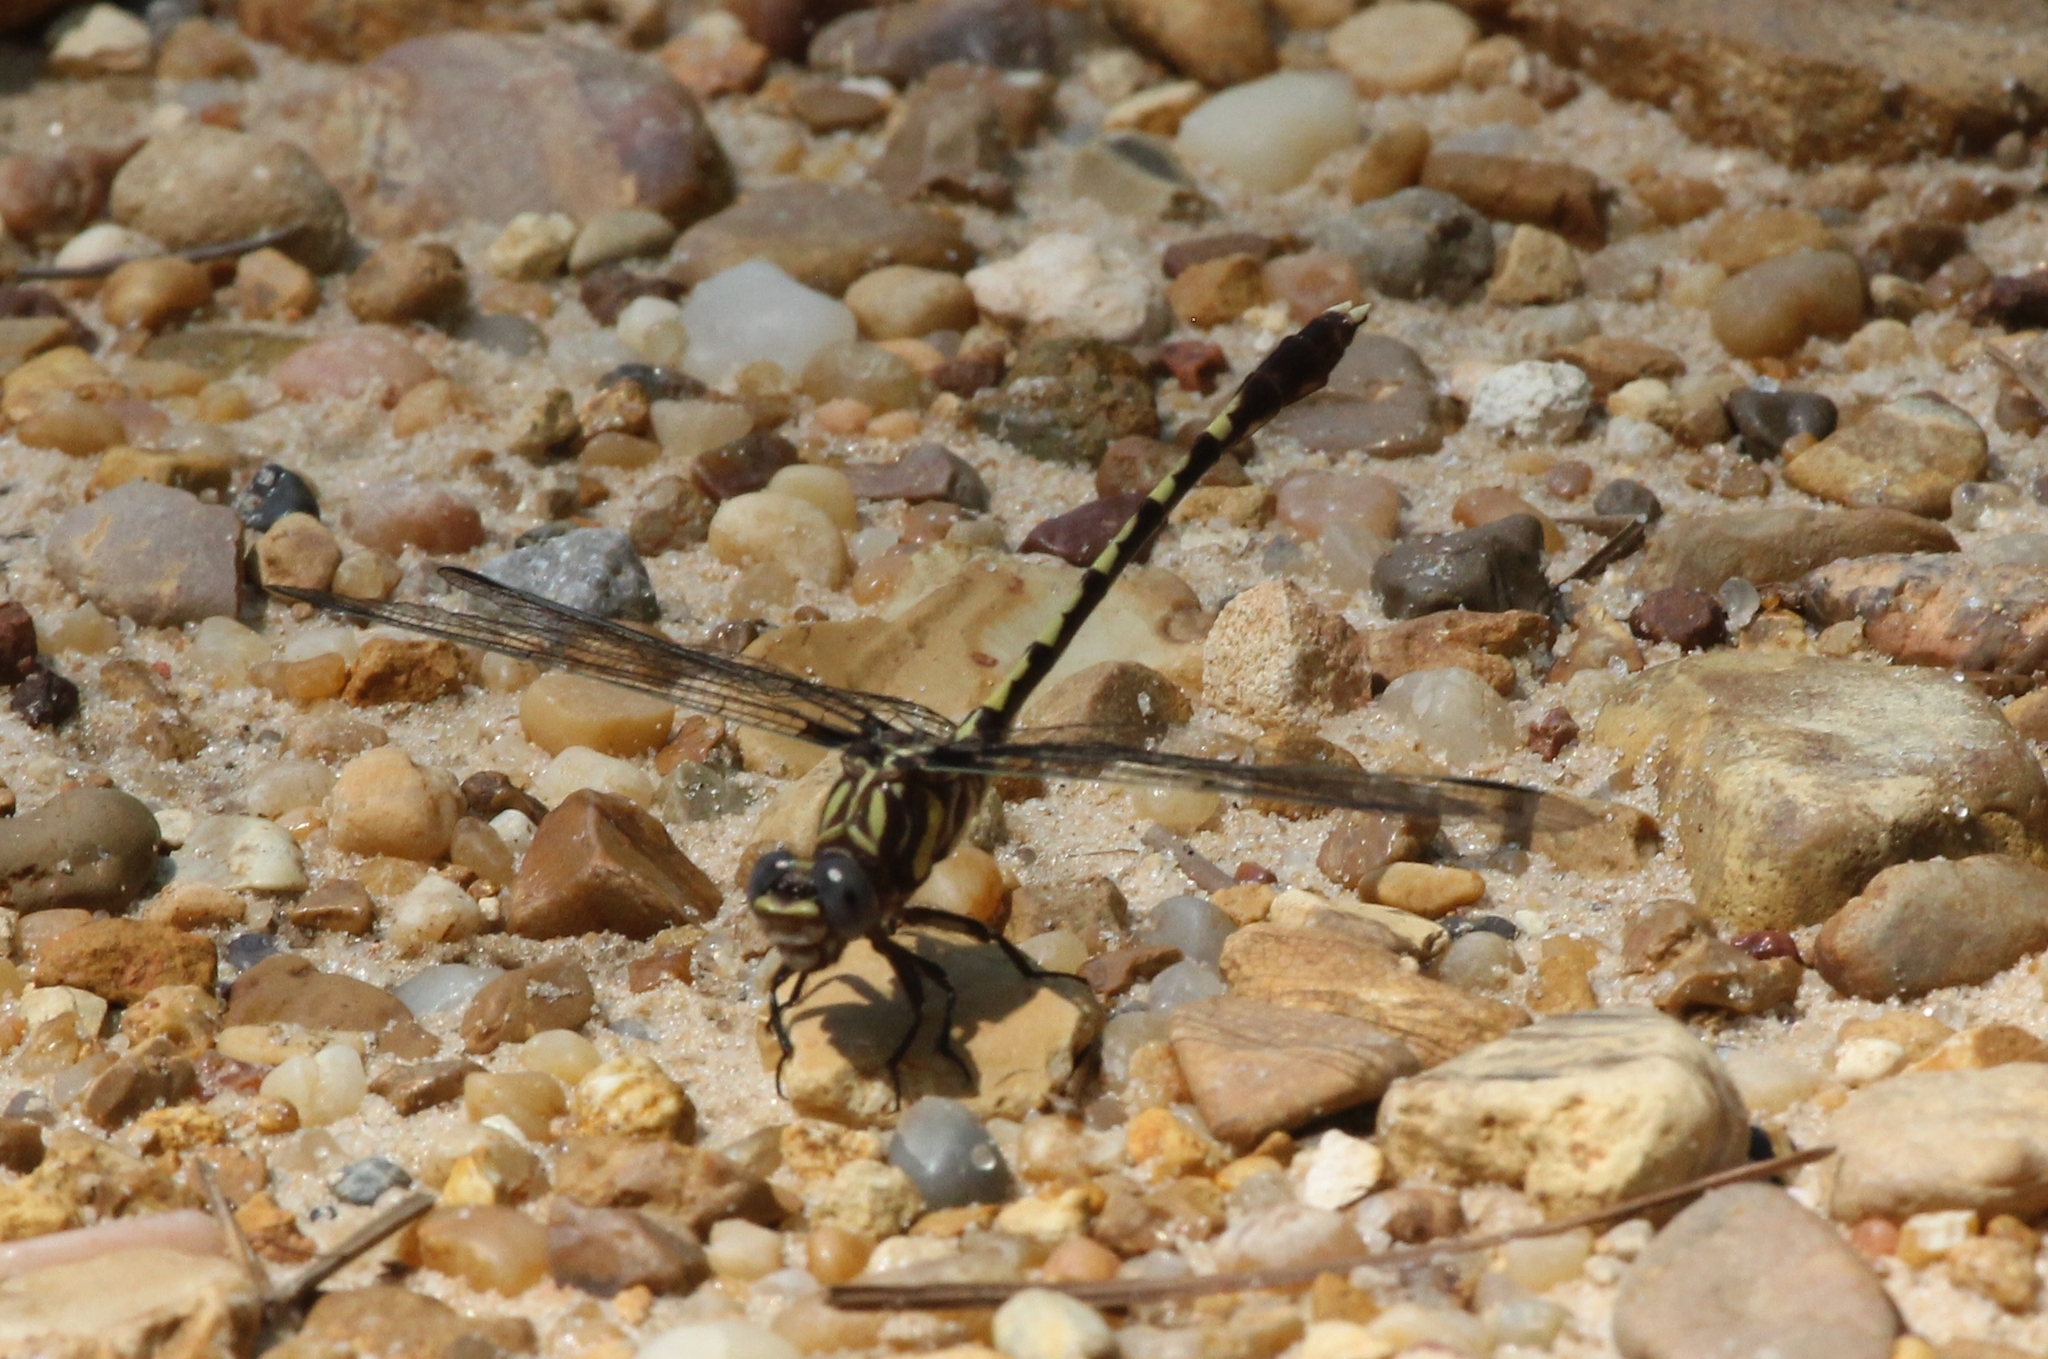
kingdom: Animalia
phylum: Arthropoda
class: Insecta
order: Odonata
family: Gomphidae
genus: Progomphus
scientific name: Progomphus obscurus
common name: Common sanddragon
